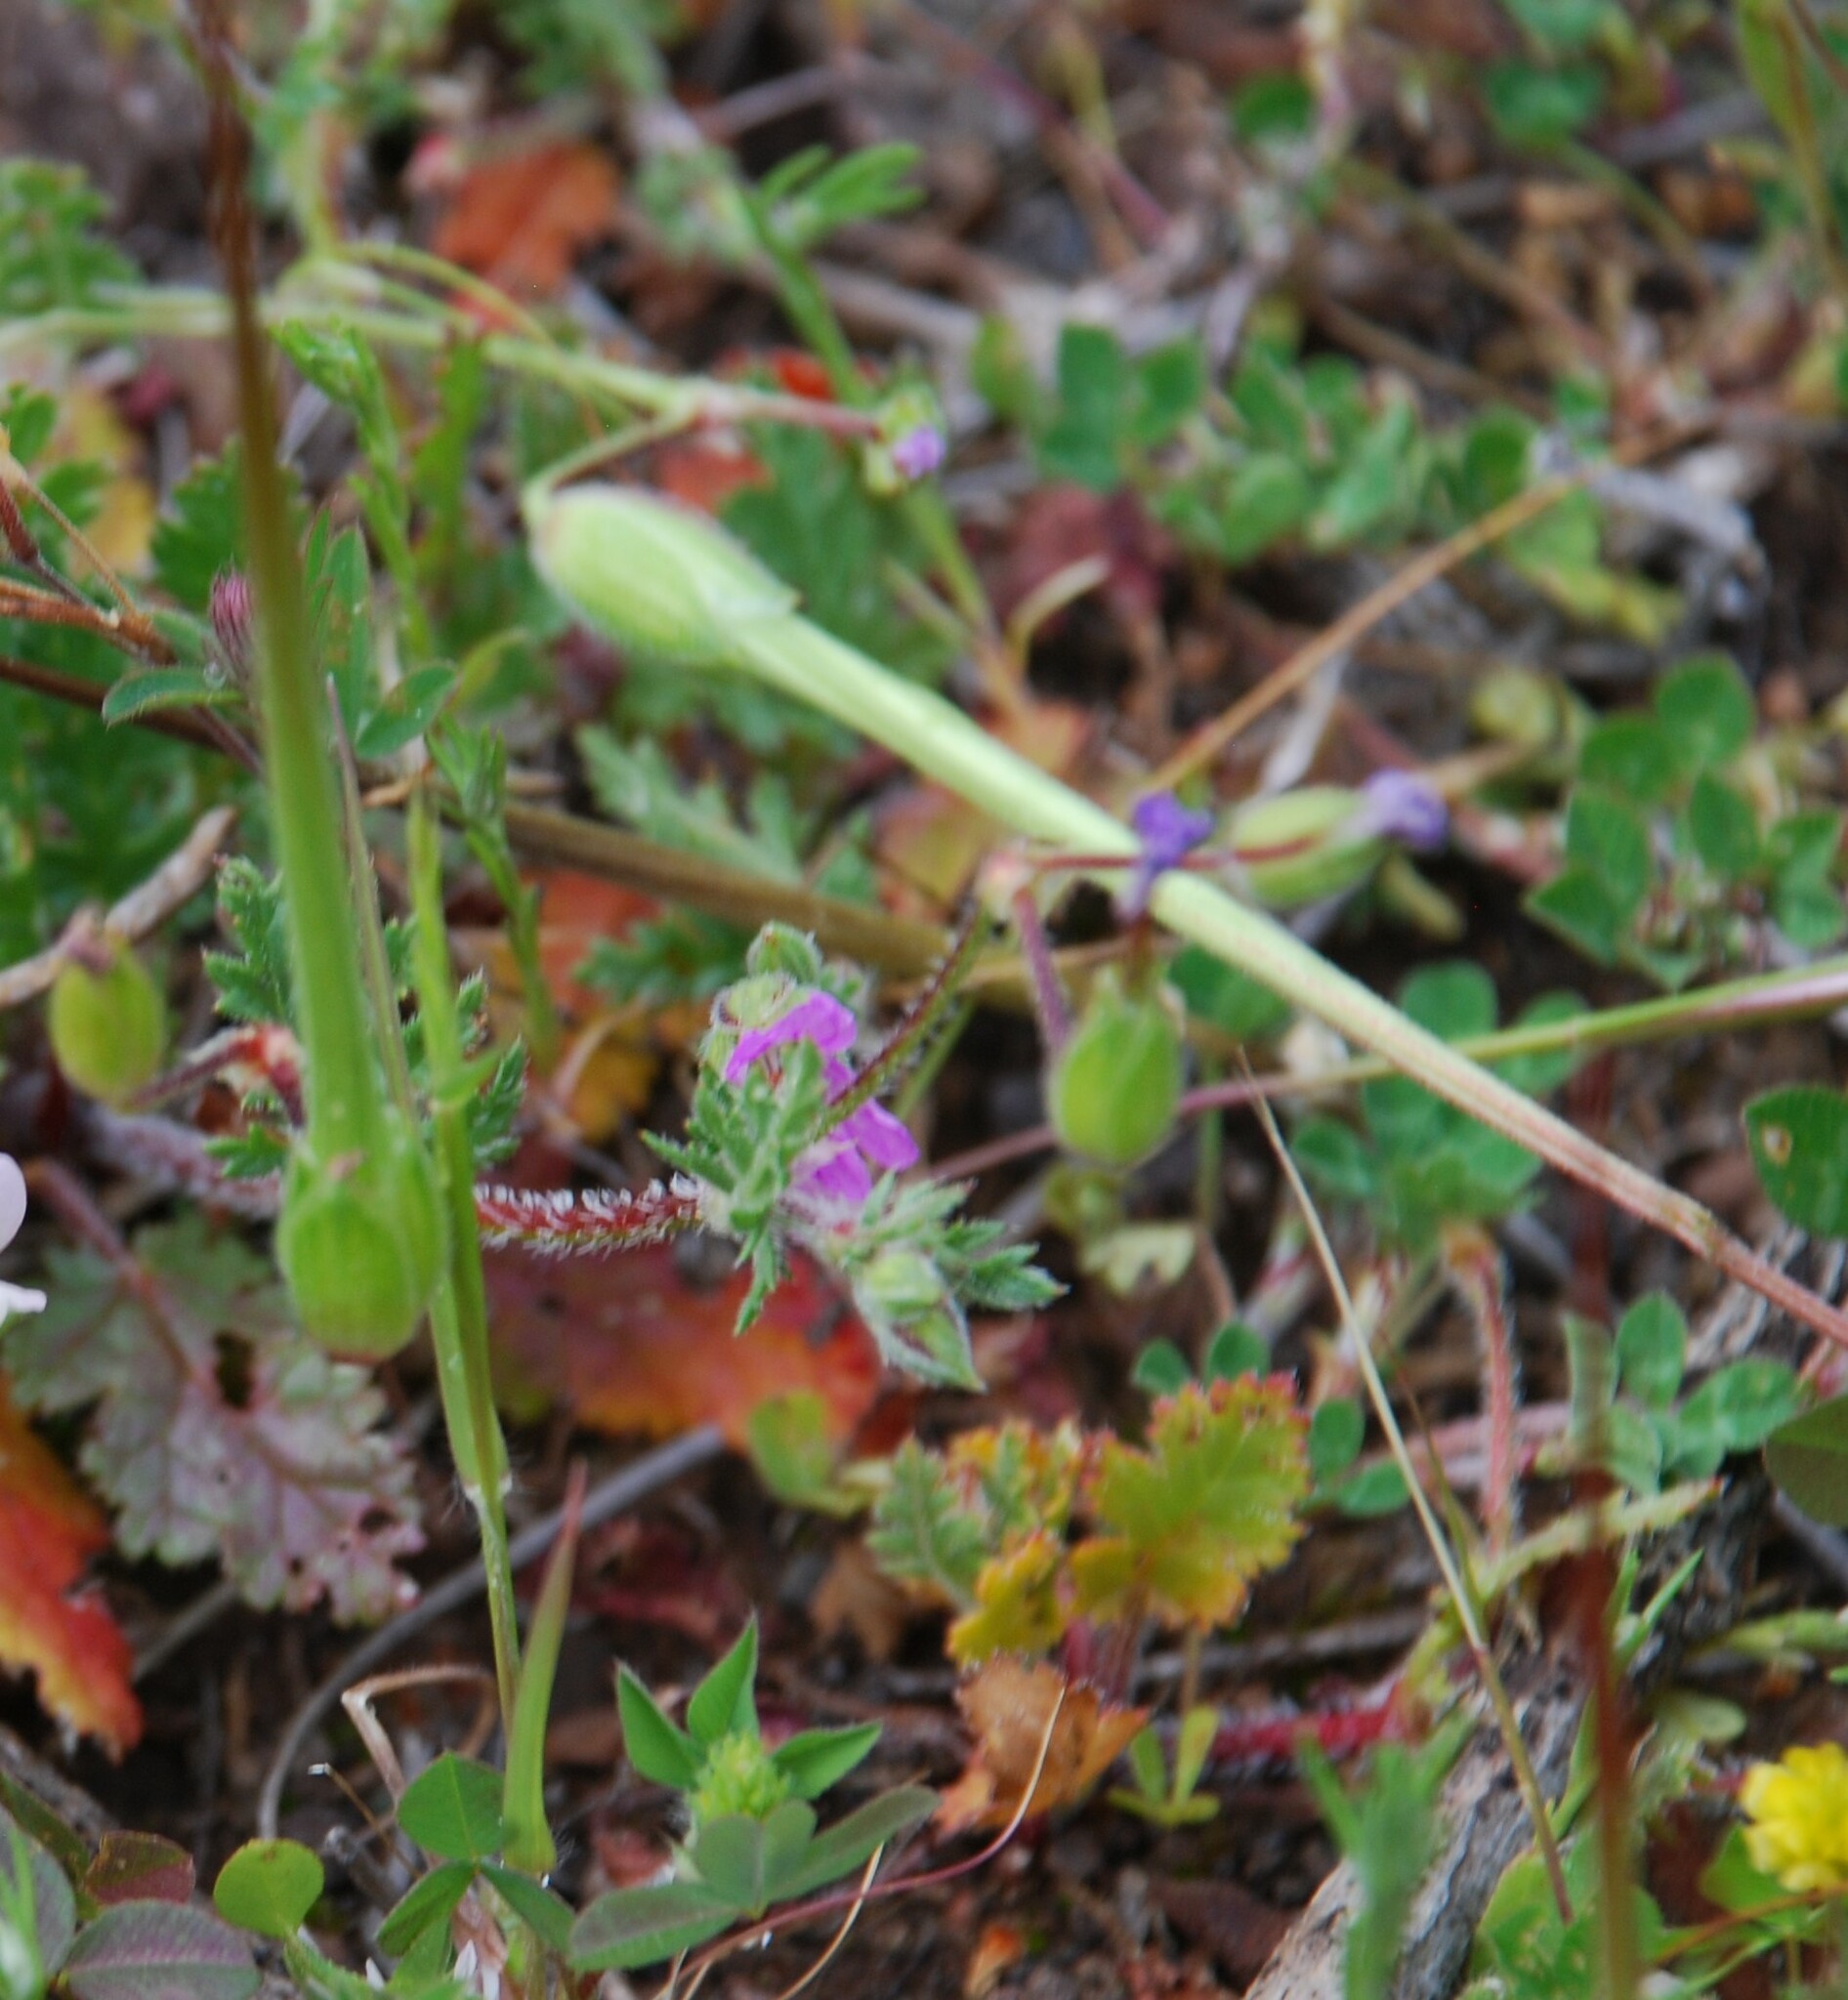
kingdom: Plantae
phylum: Tracheophyta
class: Magnoliopsida
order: Geraniales
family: Geraniaceae
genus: Erodium
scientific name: Erodium botrys
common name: Mediterranean stork's-bill
